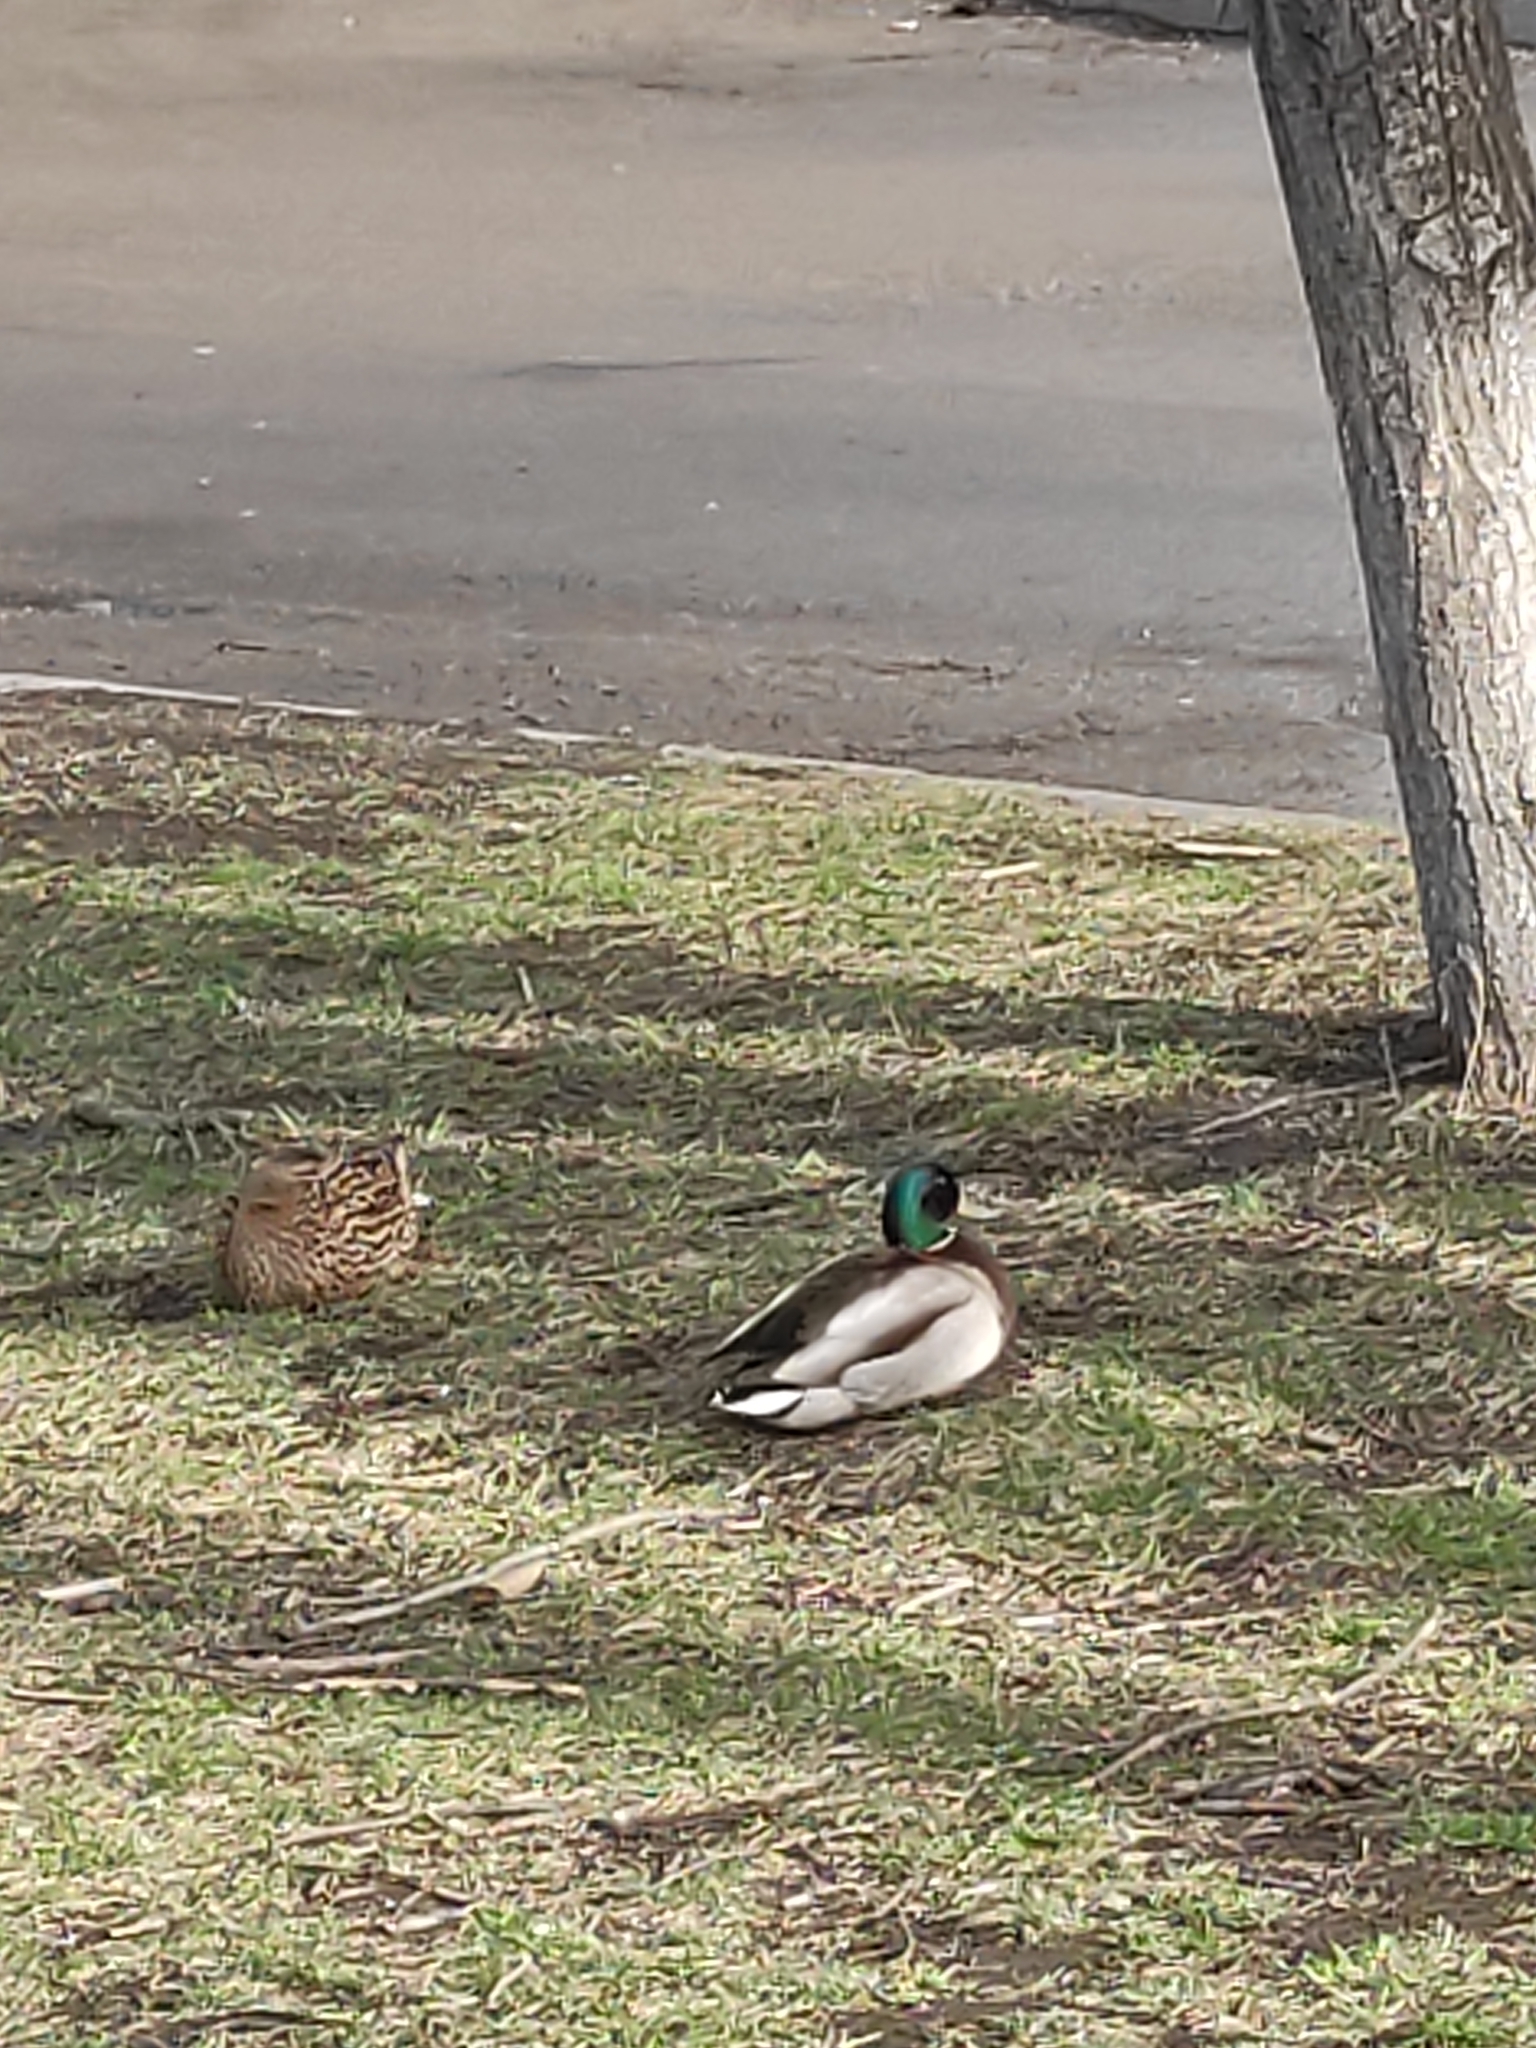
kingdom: Animalia
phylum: Chordata
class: Aves
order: Anseriformes
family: Anatidae
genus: Anas
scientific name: Anas platyrhynchos
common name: Mallard
